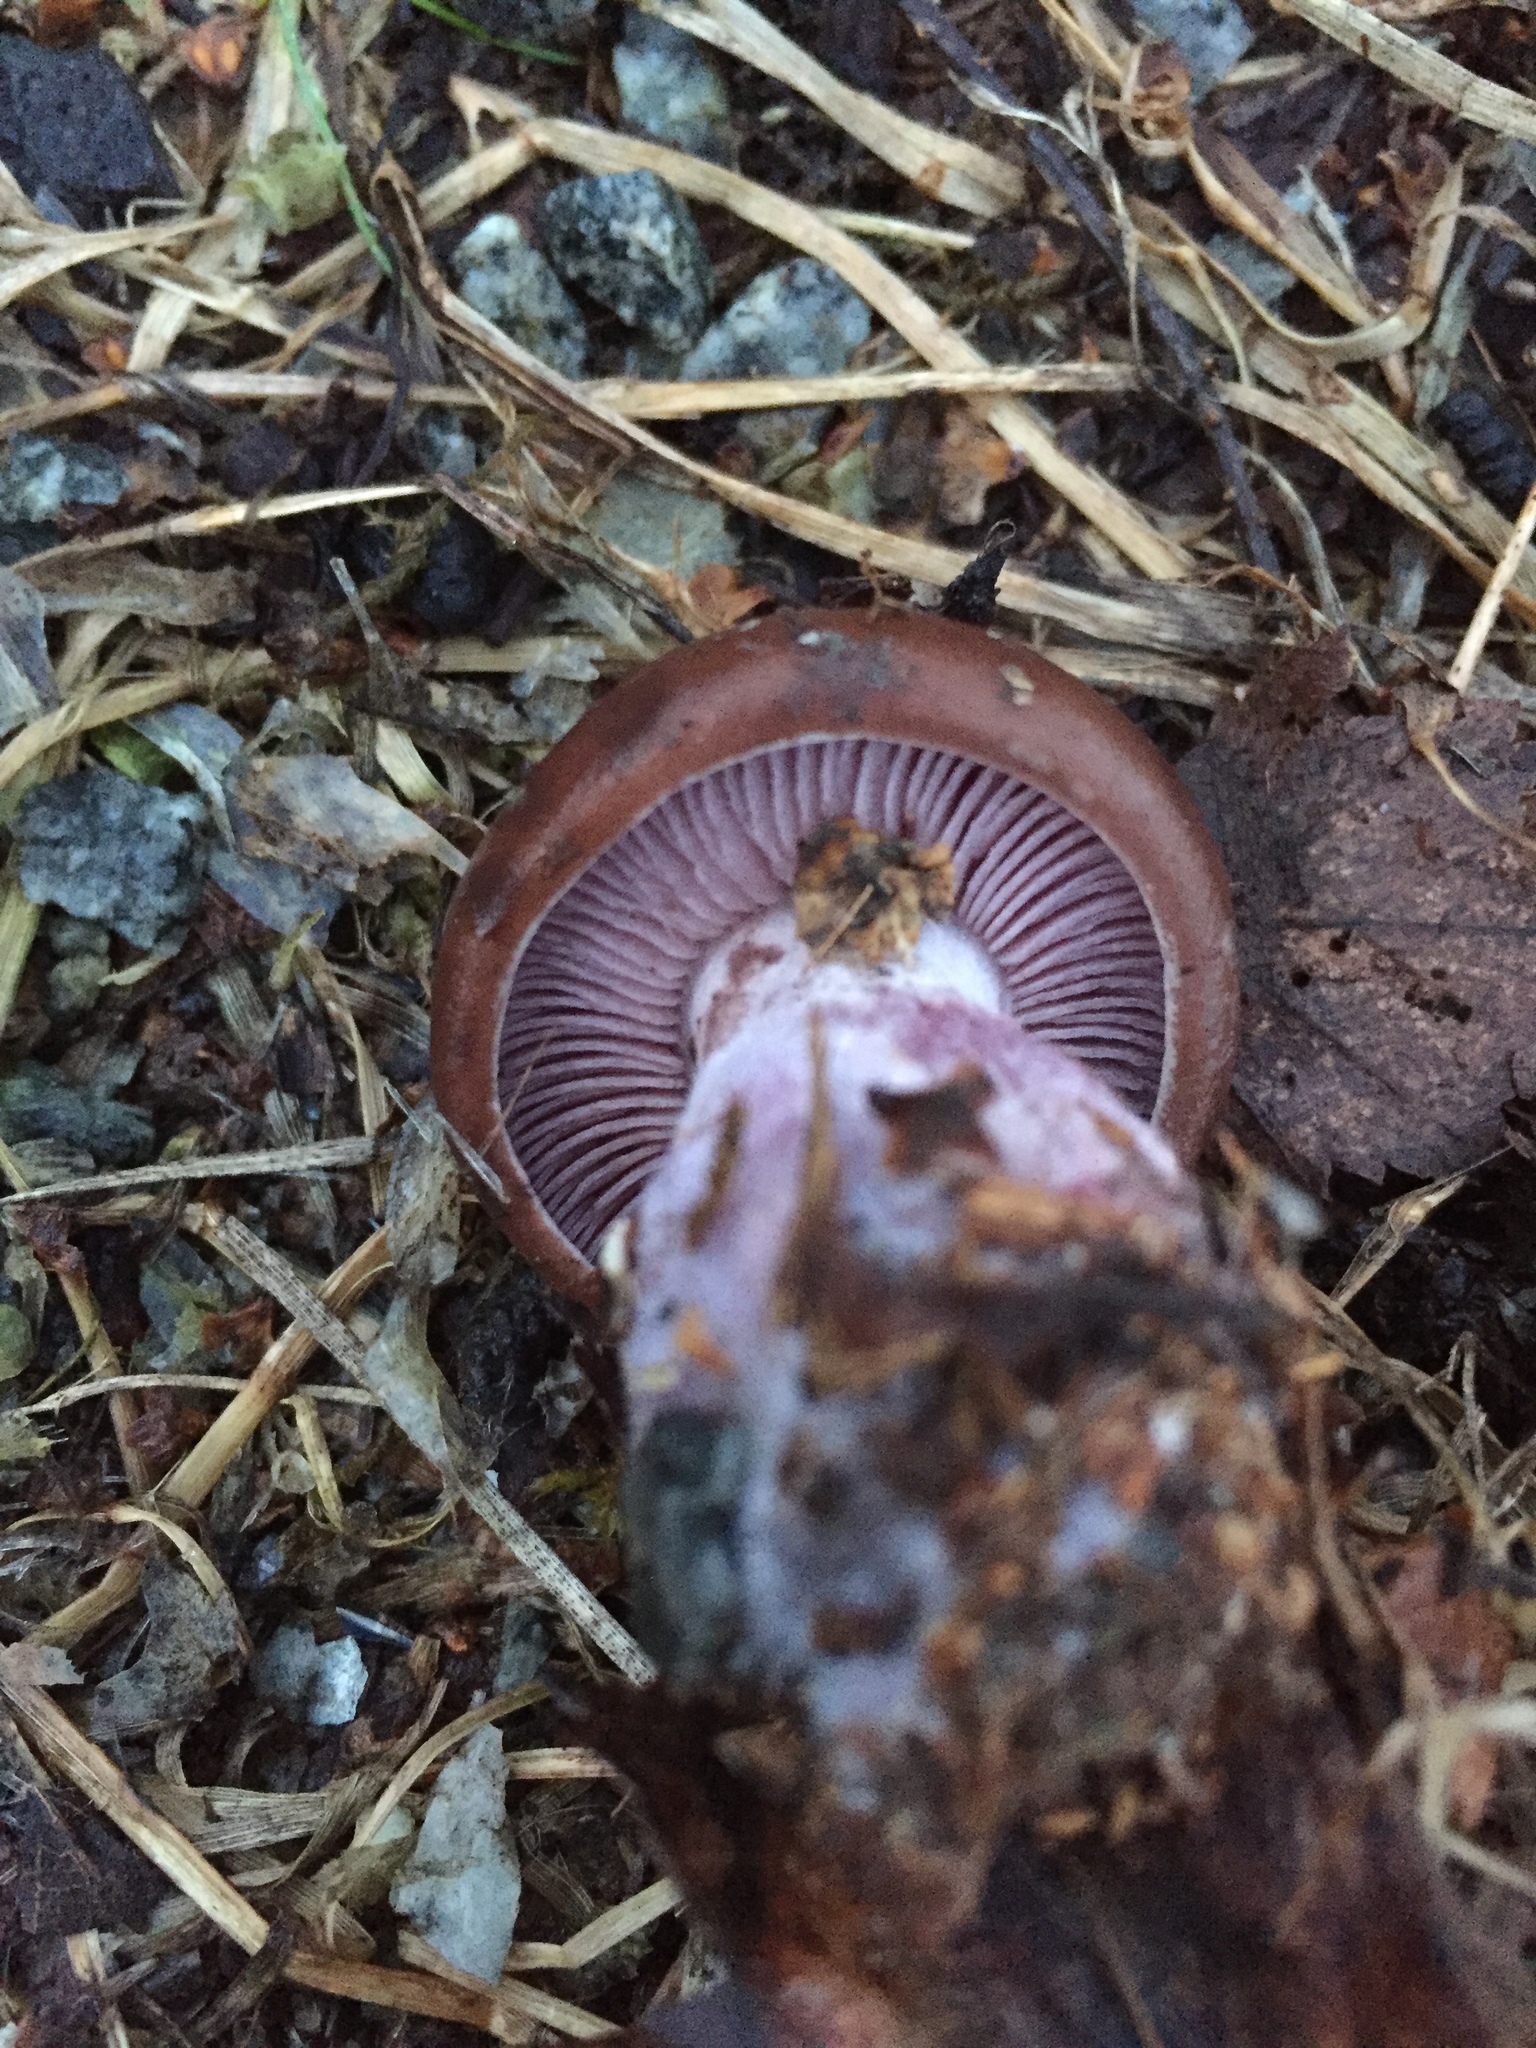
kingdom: Fungi
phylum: Basidiomycota
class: Agaricomycetes
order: Agaricales
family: Tricholomataceae
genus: Collybia
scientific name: Collybia
